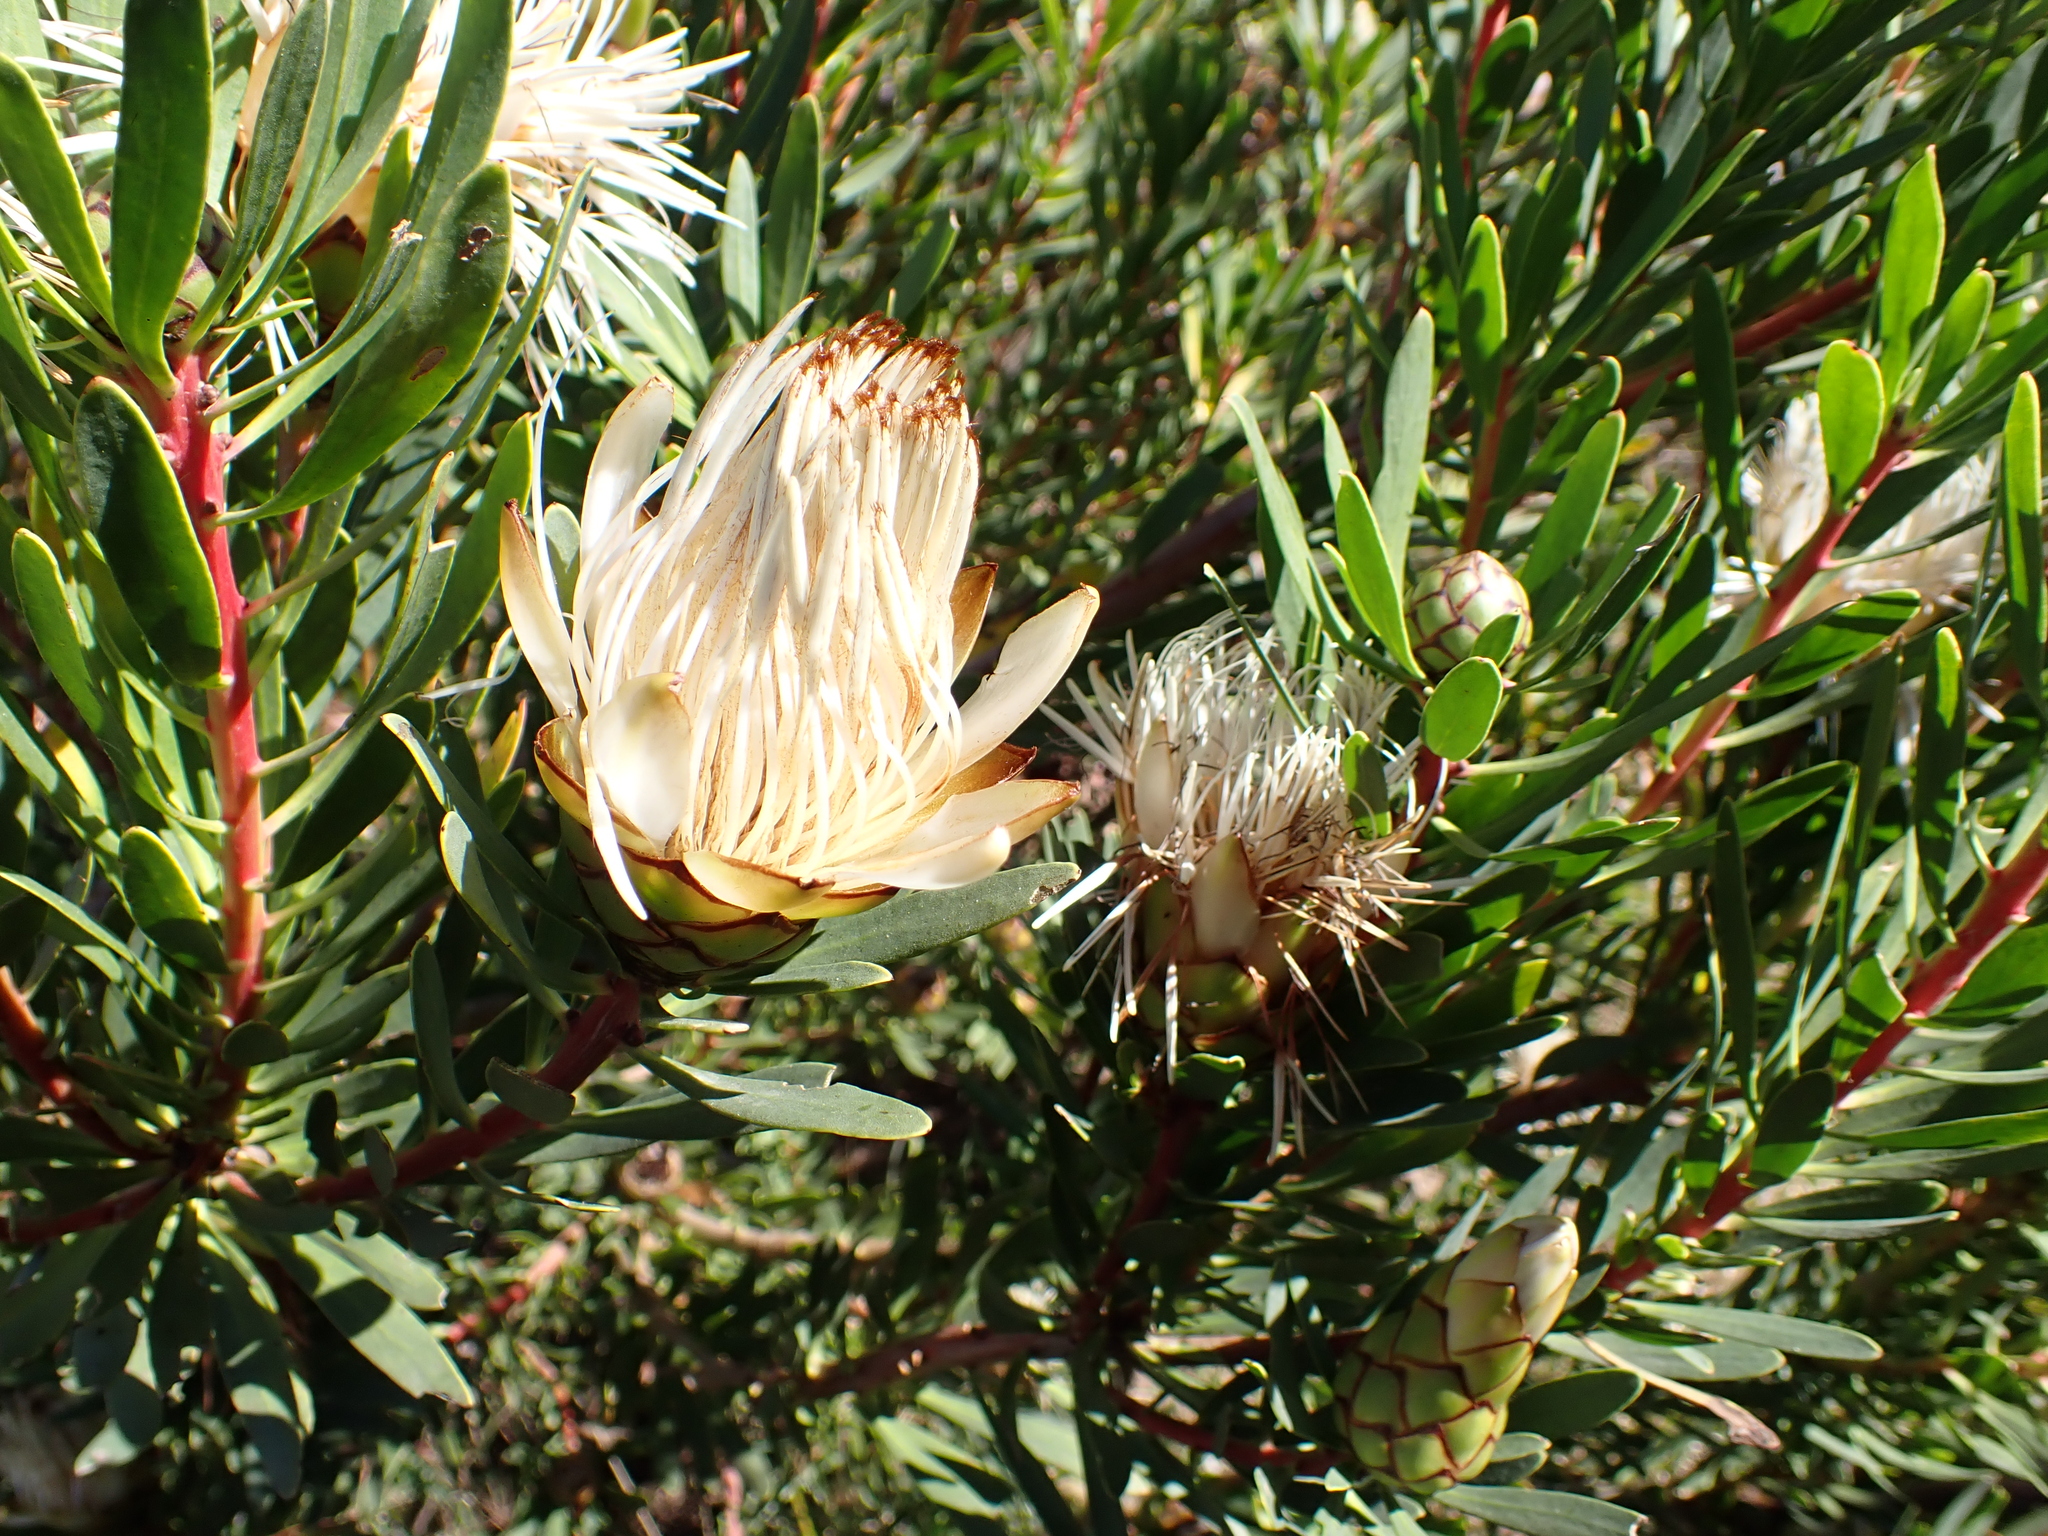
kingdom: Plantae
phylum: Tracheophyta
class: Magnoliopsida
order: Proteales
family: Proteaceae
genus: Protea
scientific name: Protea lanceolata
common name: Lance-leaved protea
